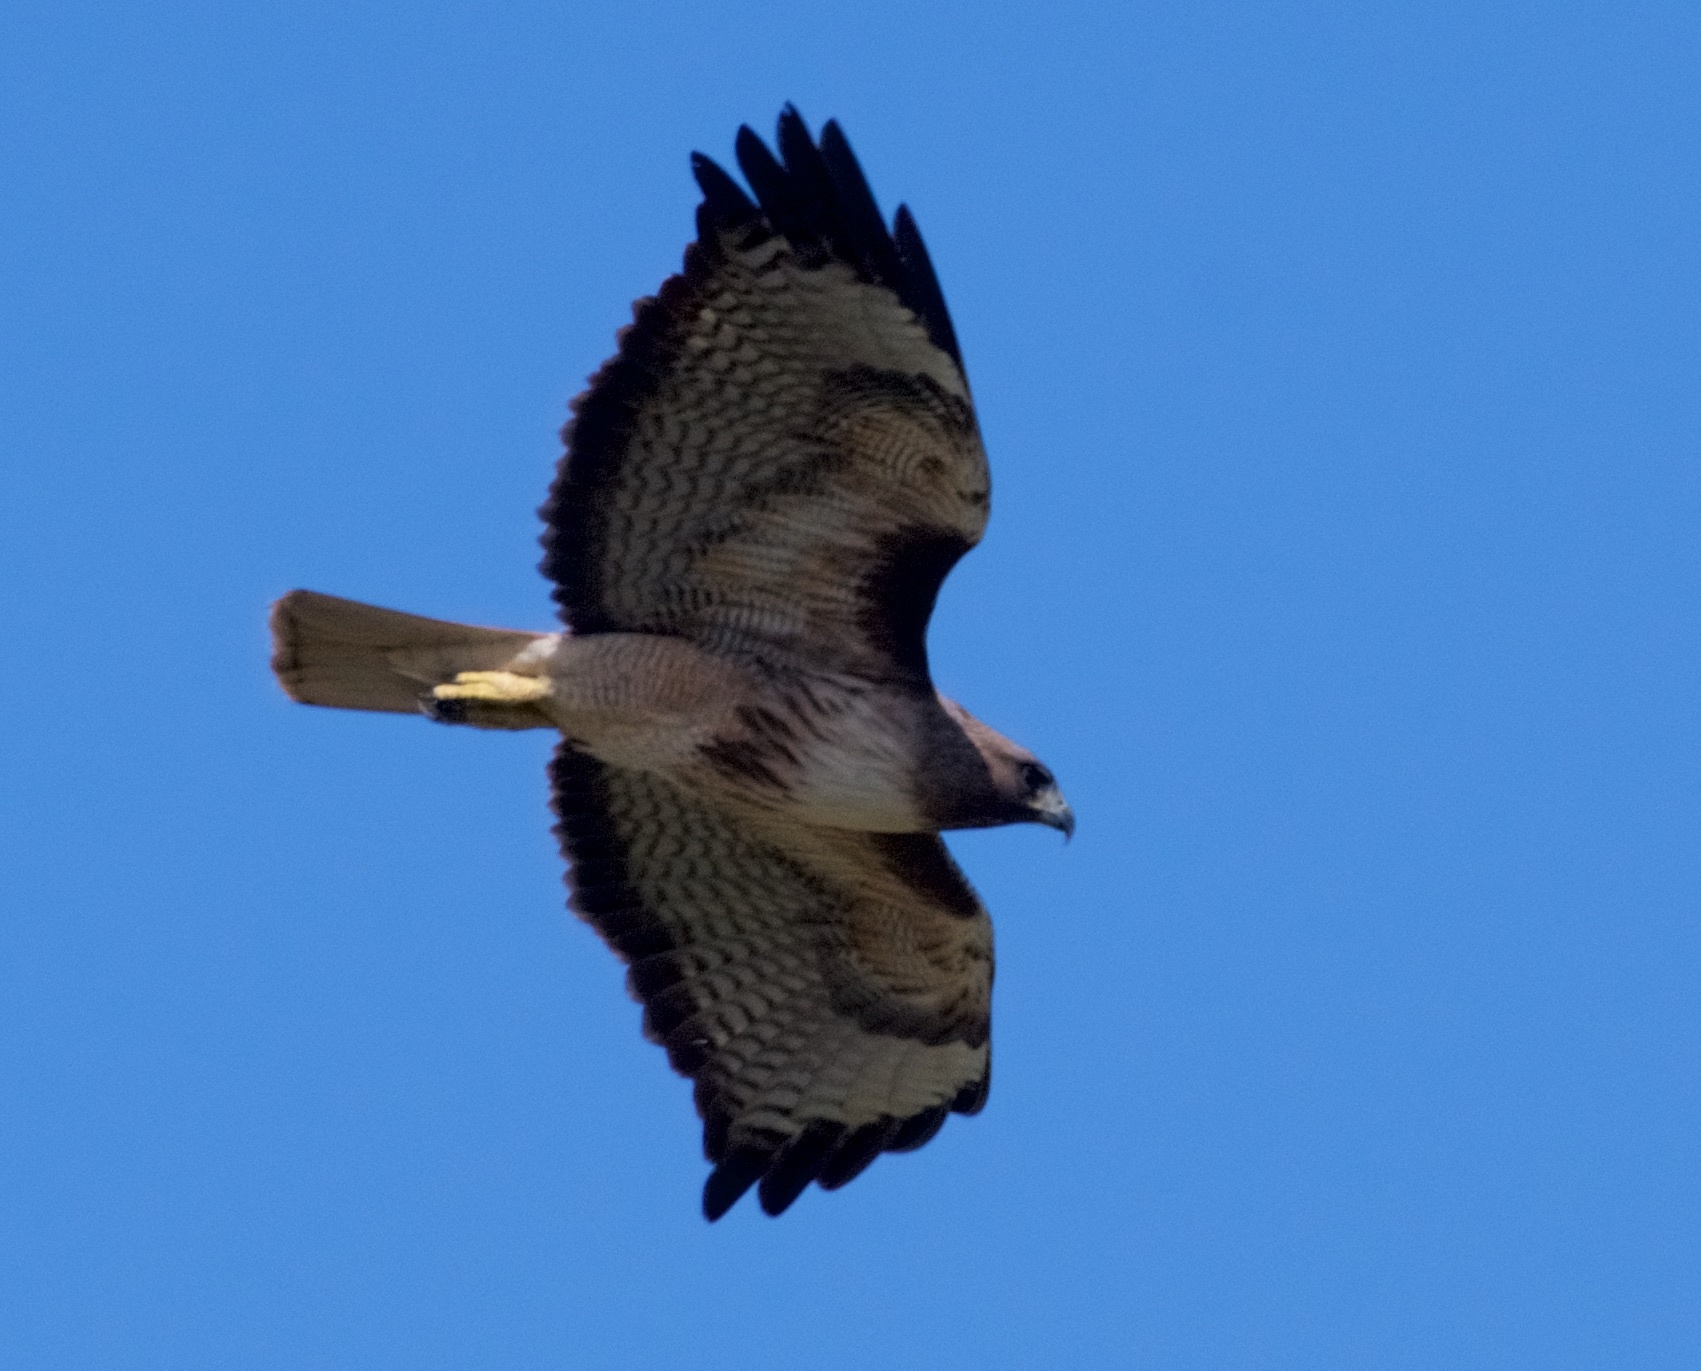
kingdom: Animalia
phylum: Chordata
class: Aves
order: Accipitriformes
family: Accipitridae
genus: Buteo
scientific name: Buteo jamaicensis
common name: Red-tailed hawk
